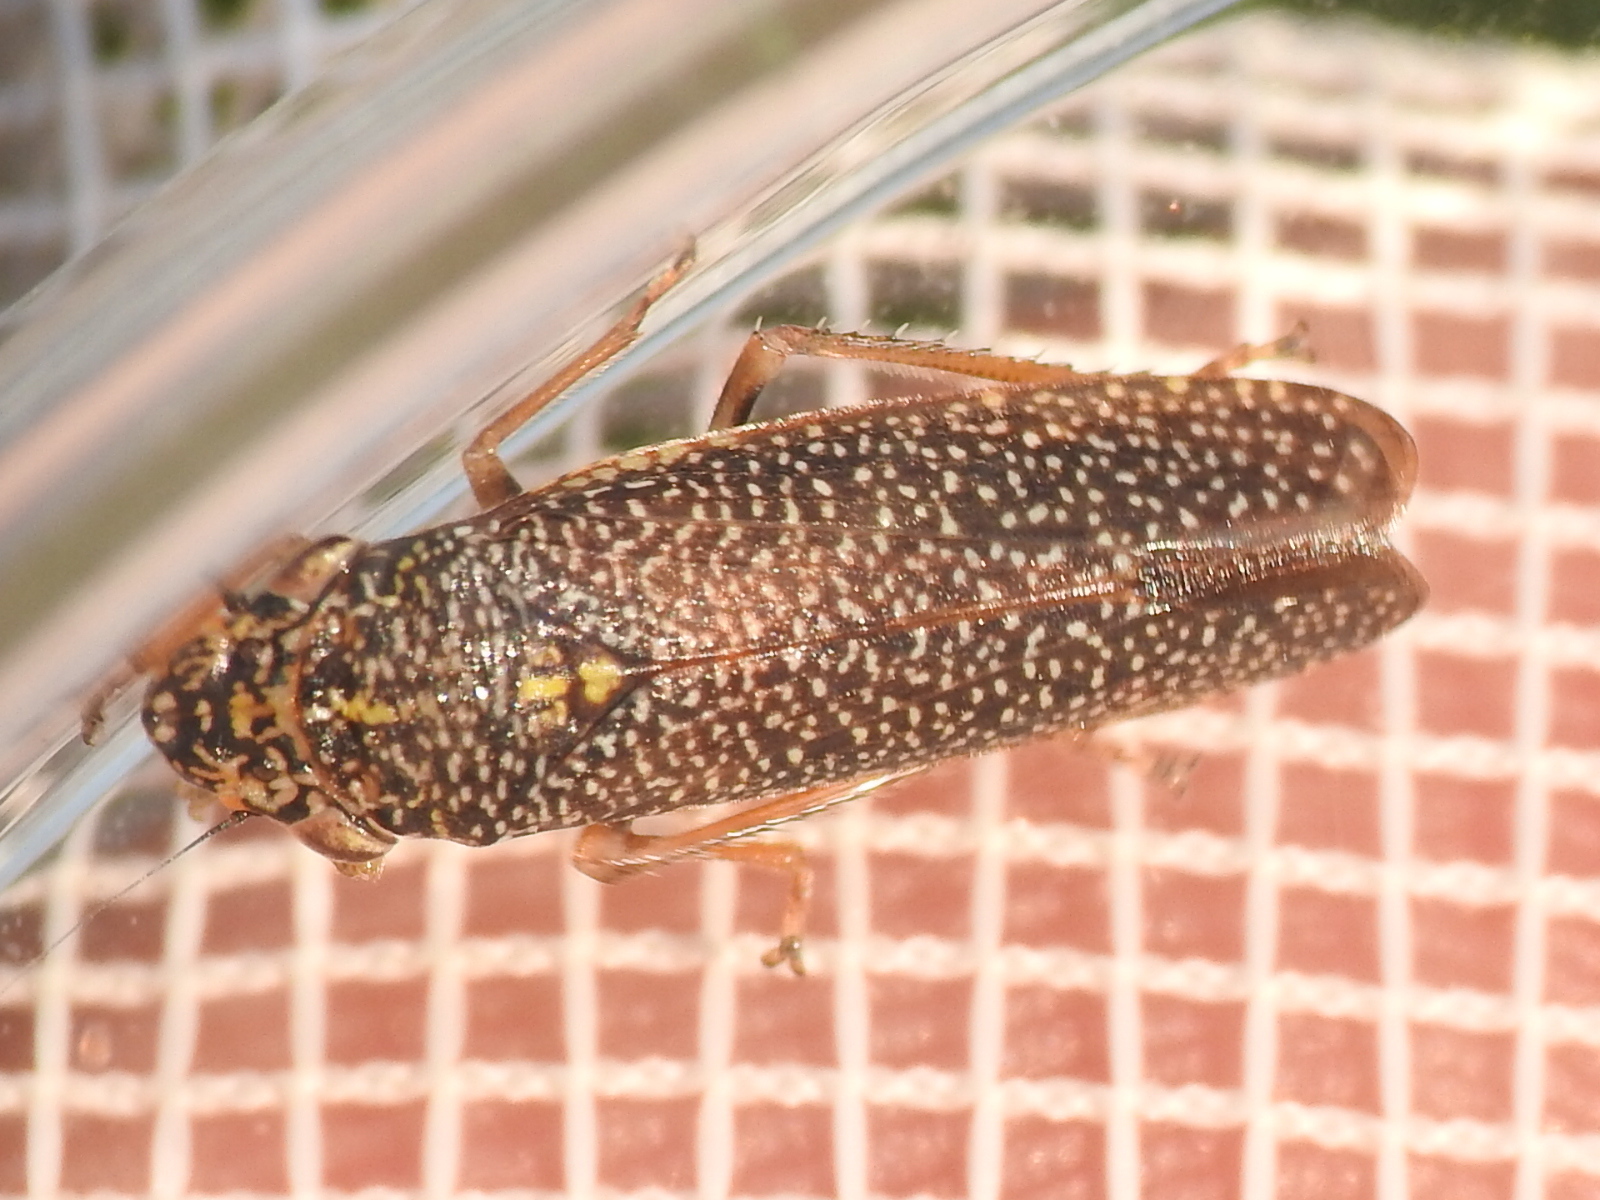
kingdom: Animalia
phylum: Arthropoda
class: Insecta
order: Hemiptera
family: Cicadellidae
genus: Paraulacizes
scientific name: Paraulacizes irrorata
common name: Speckled sharpshooter
